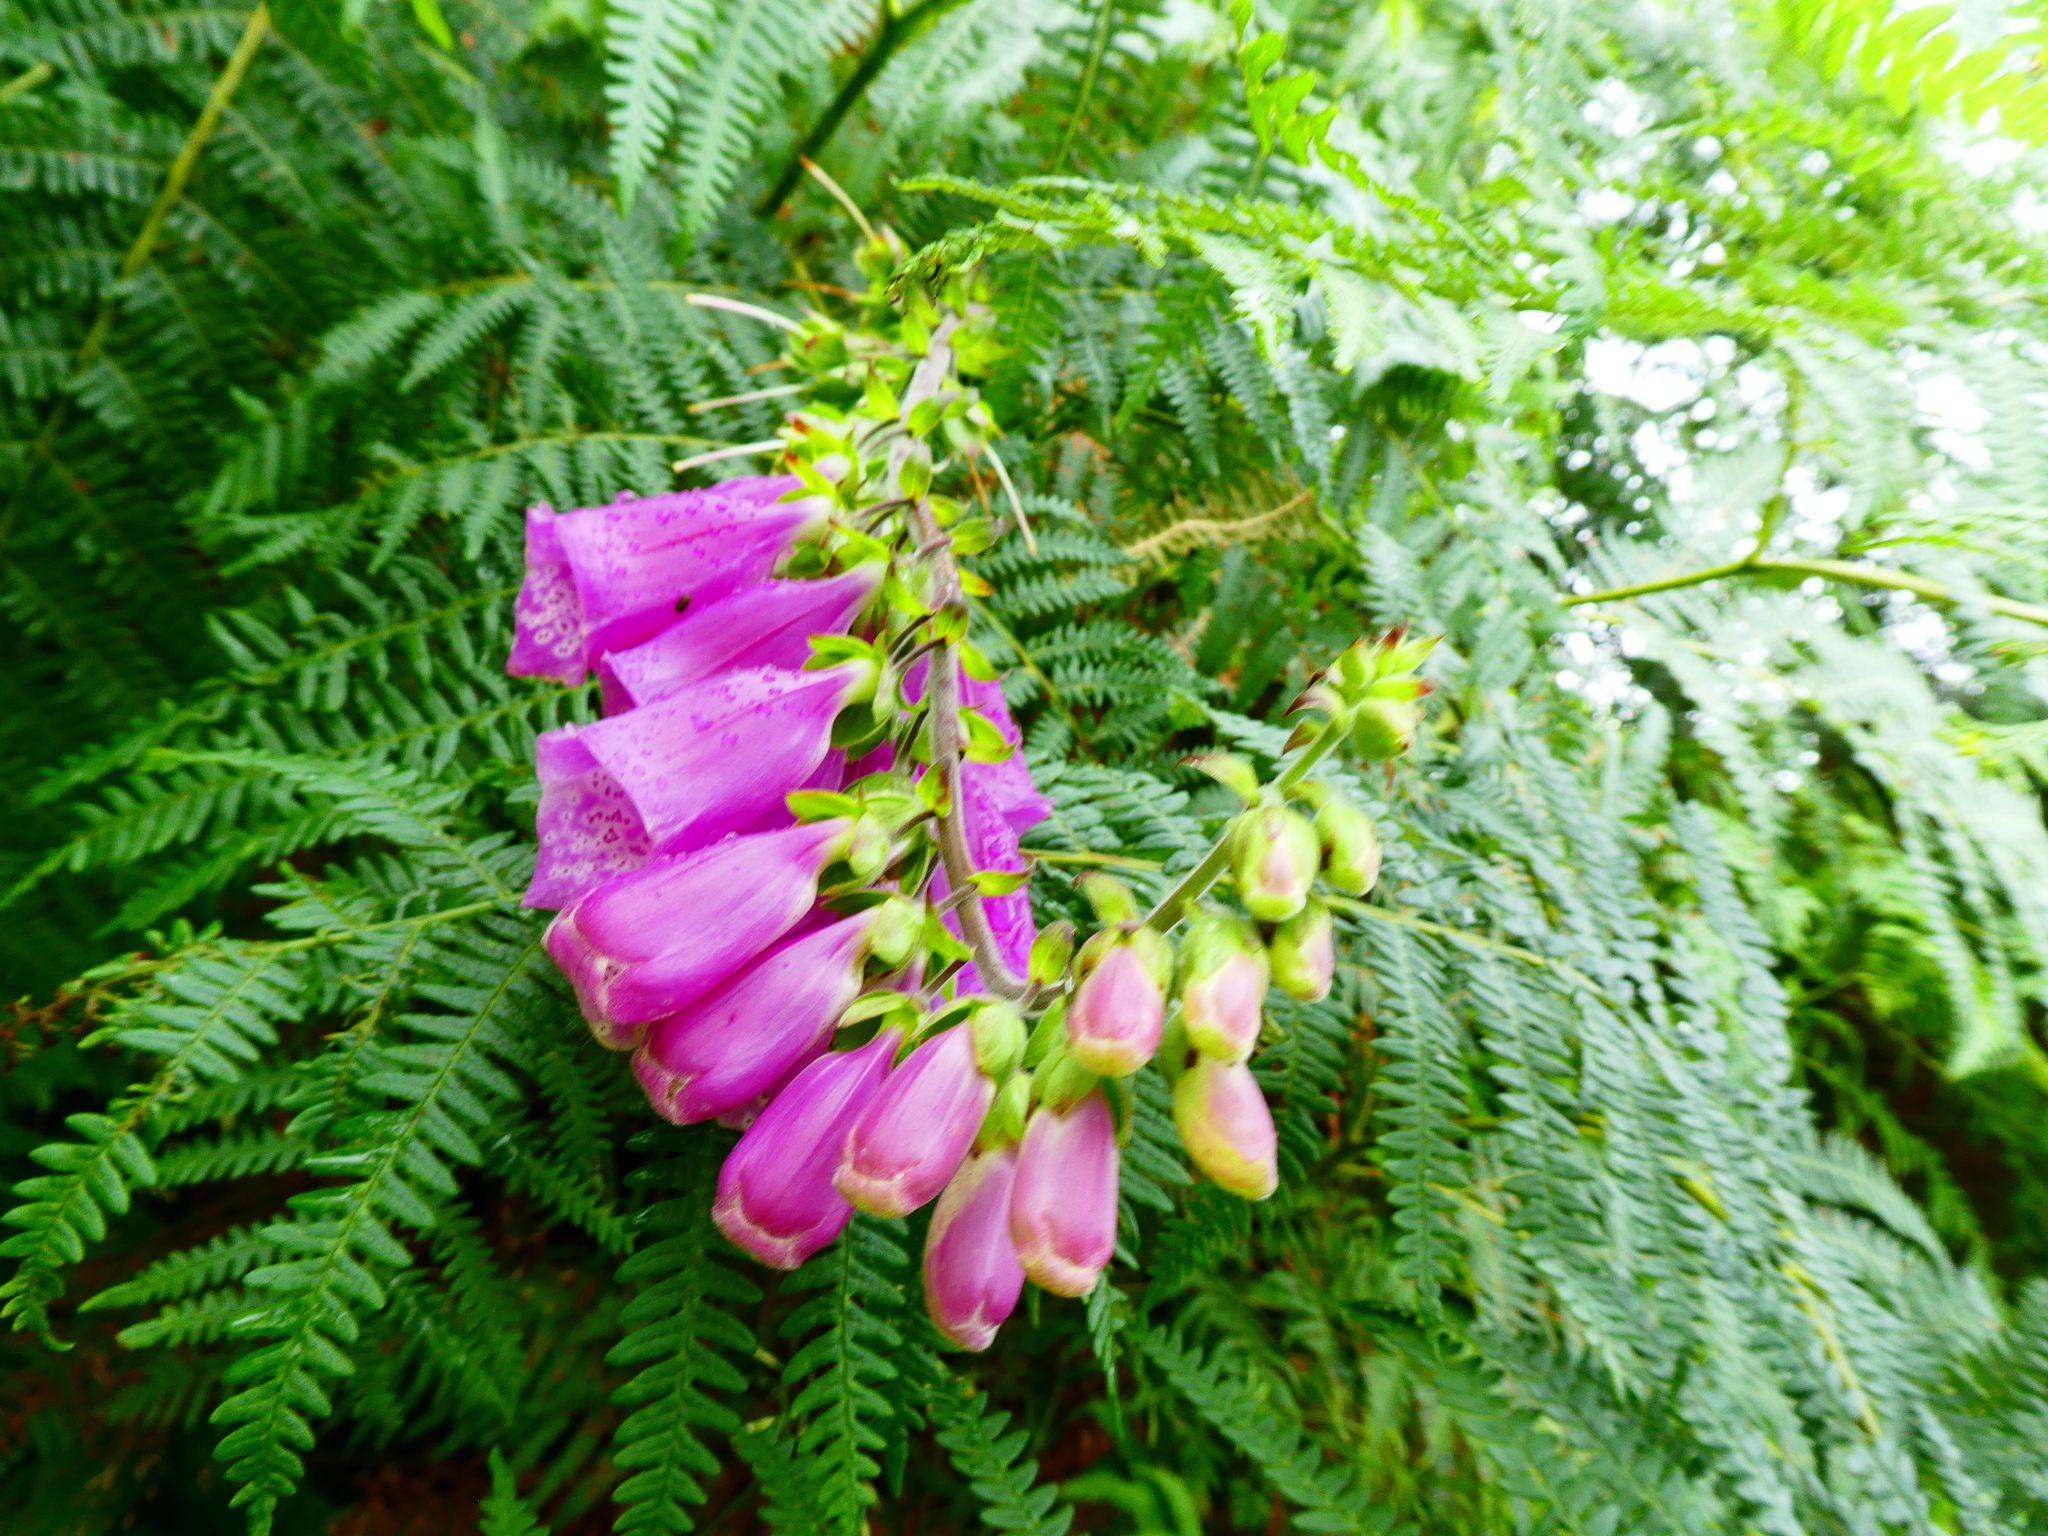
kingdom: Plantae
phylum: Tracheophyta
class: Magnoliopsida
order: Lamiales
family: Plantaginaceae
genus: Digitalis
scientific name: Digitalis purpurea
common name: Foxglove
